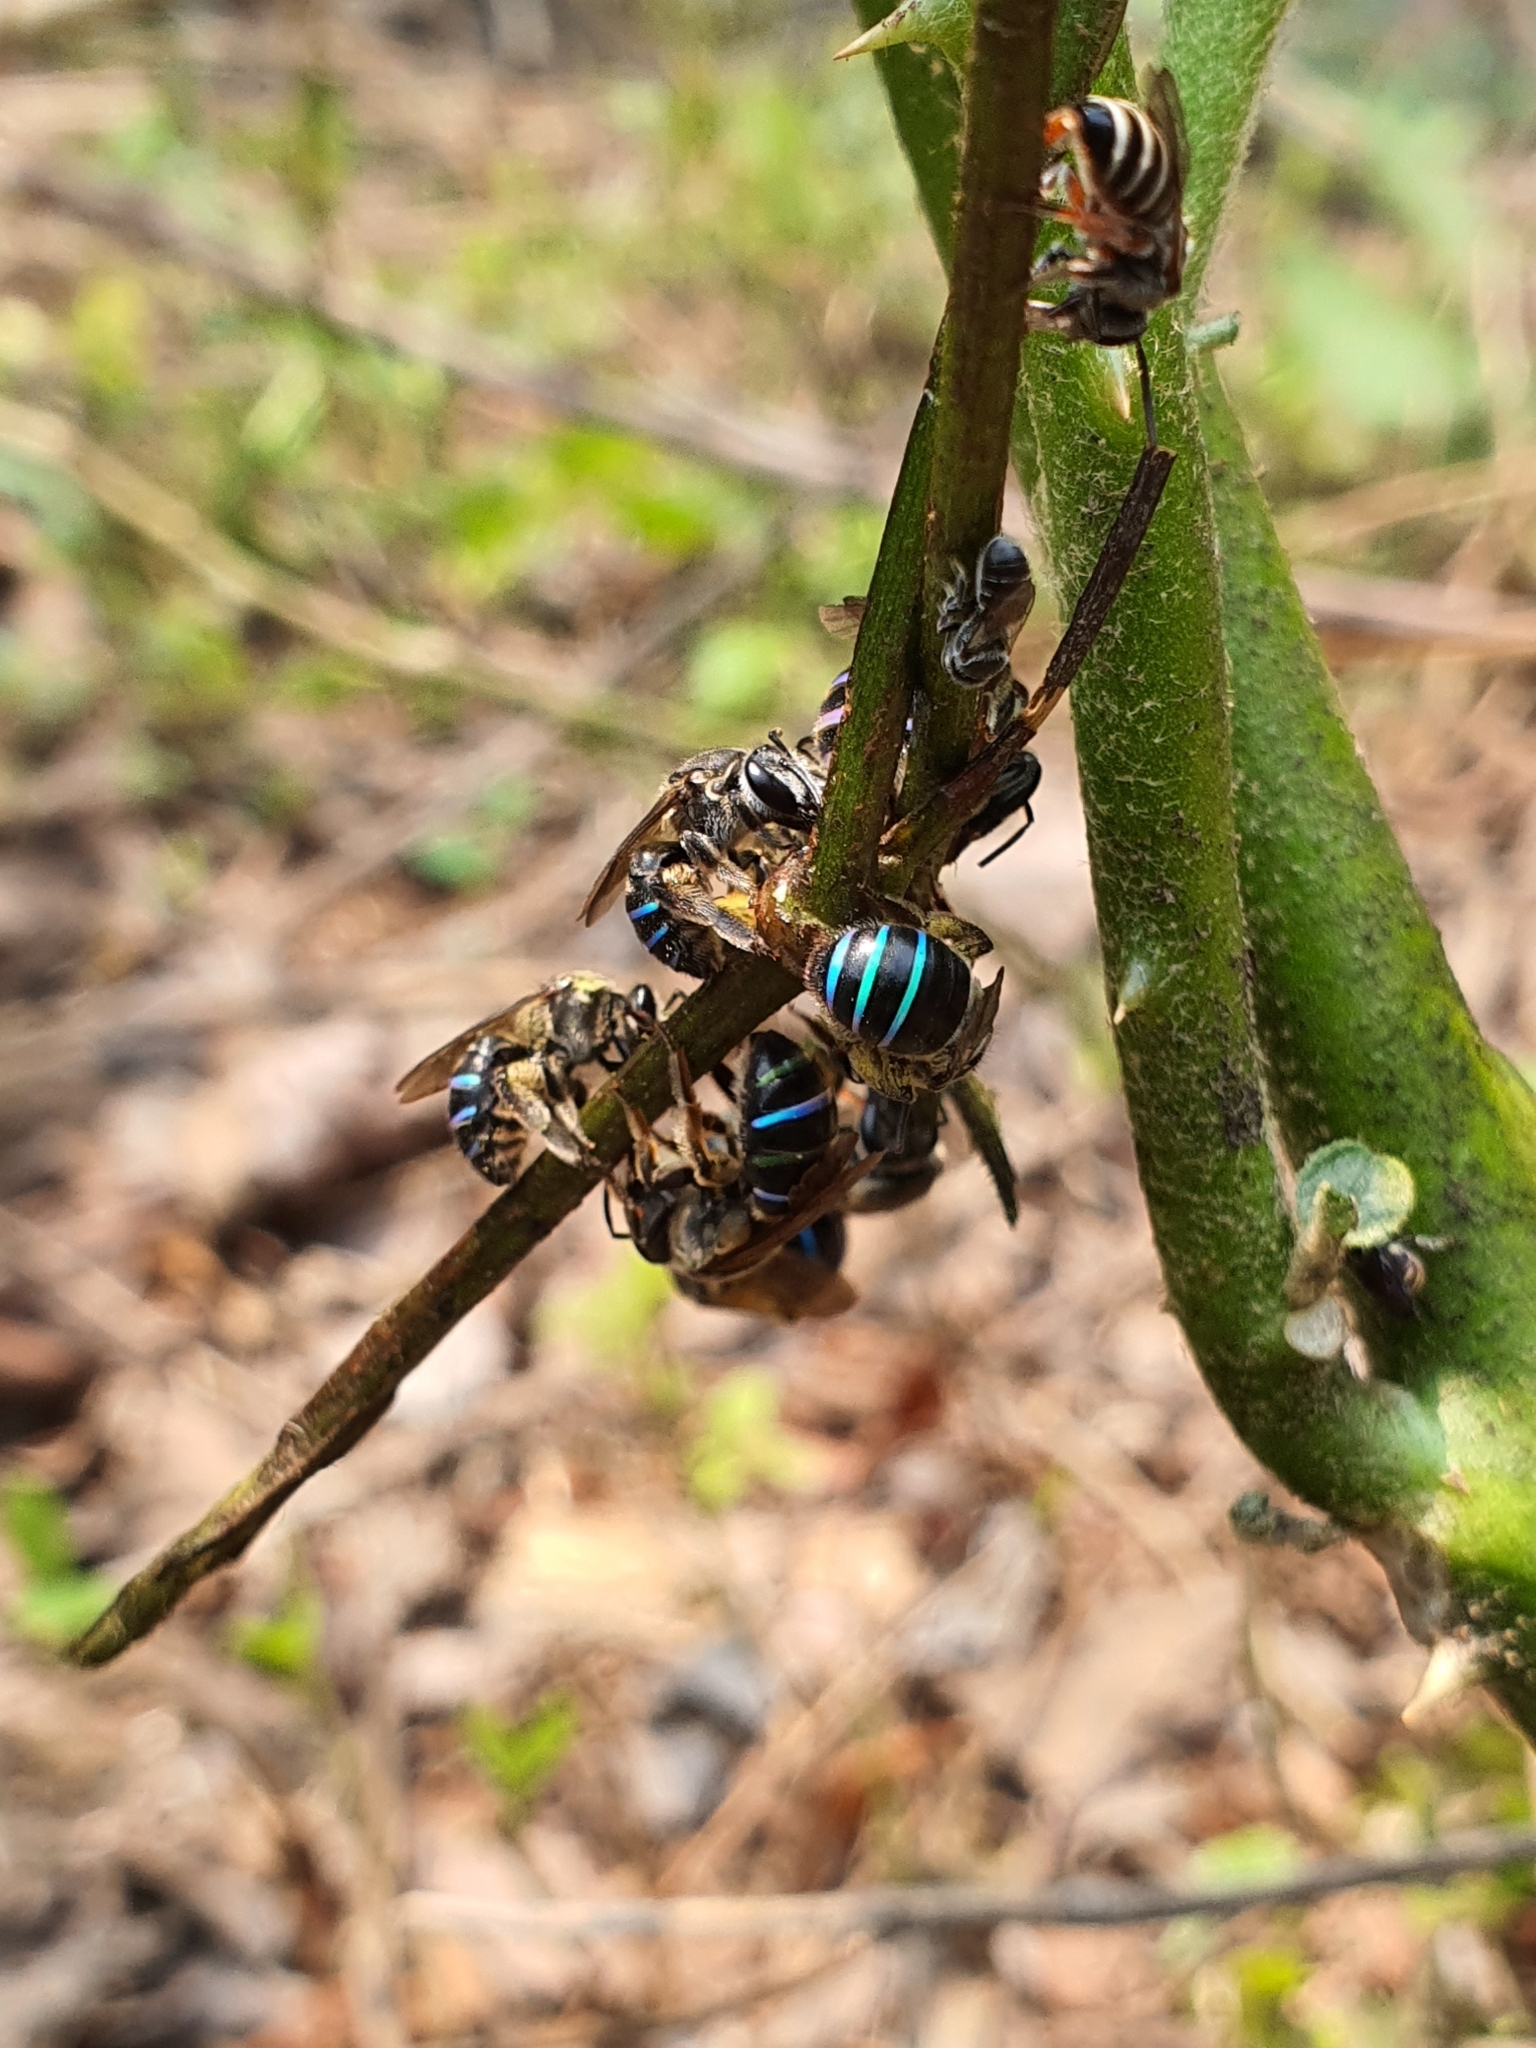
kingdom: Animalia
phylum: Arthropoda
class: Insecta
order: Hymenoptera
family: Halictidae
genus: Nomia
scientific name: Nomia iridescens
